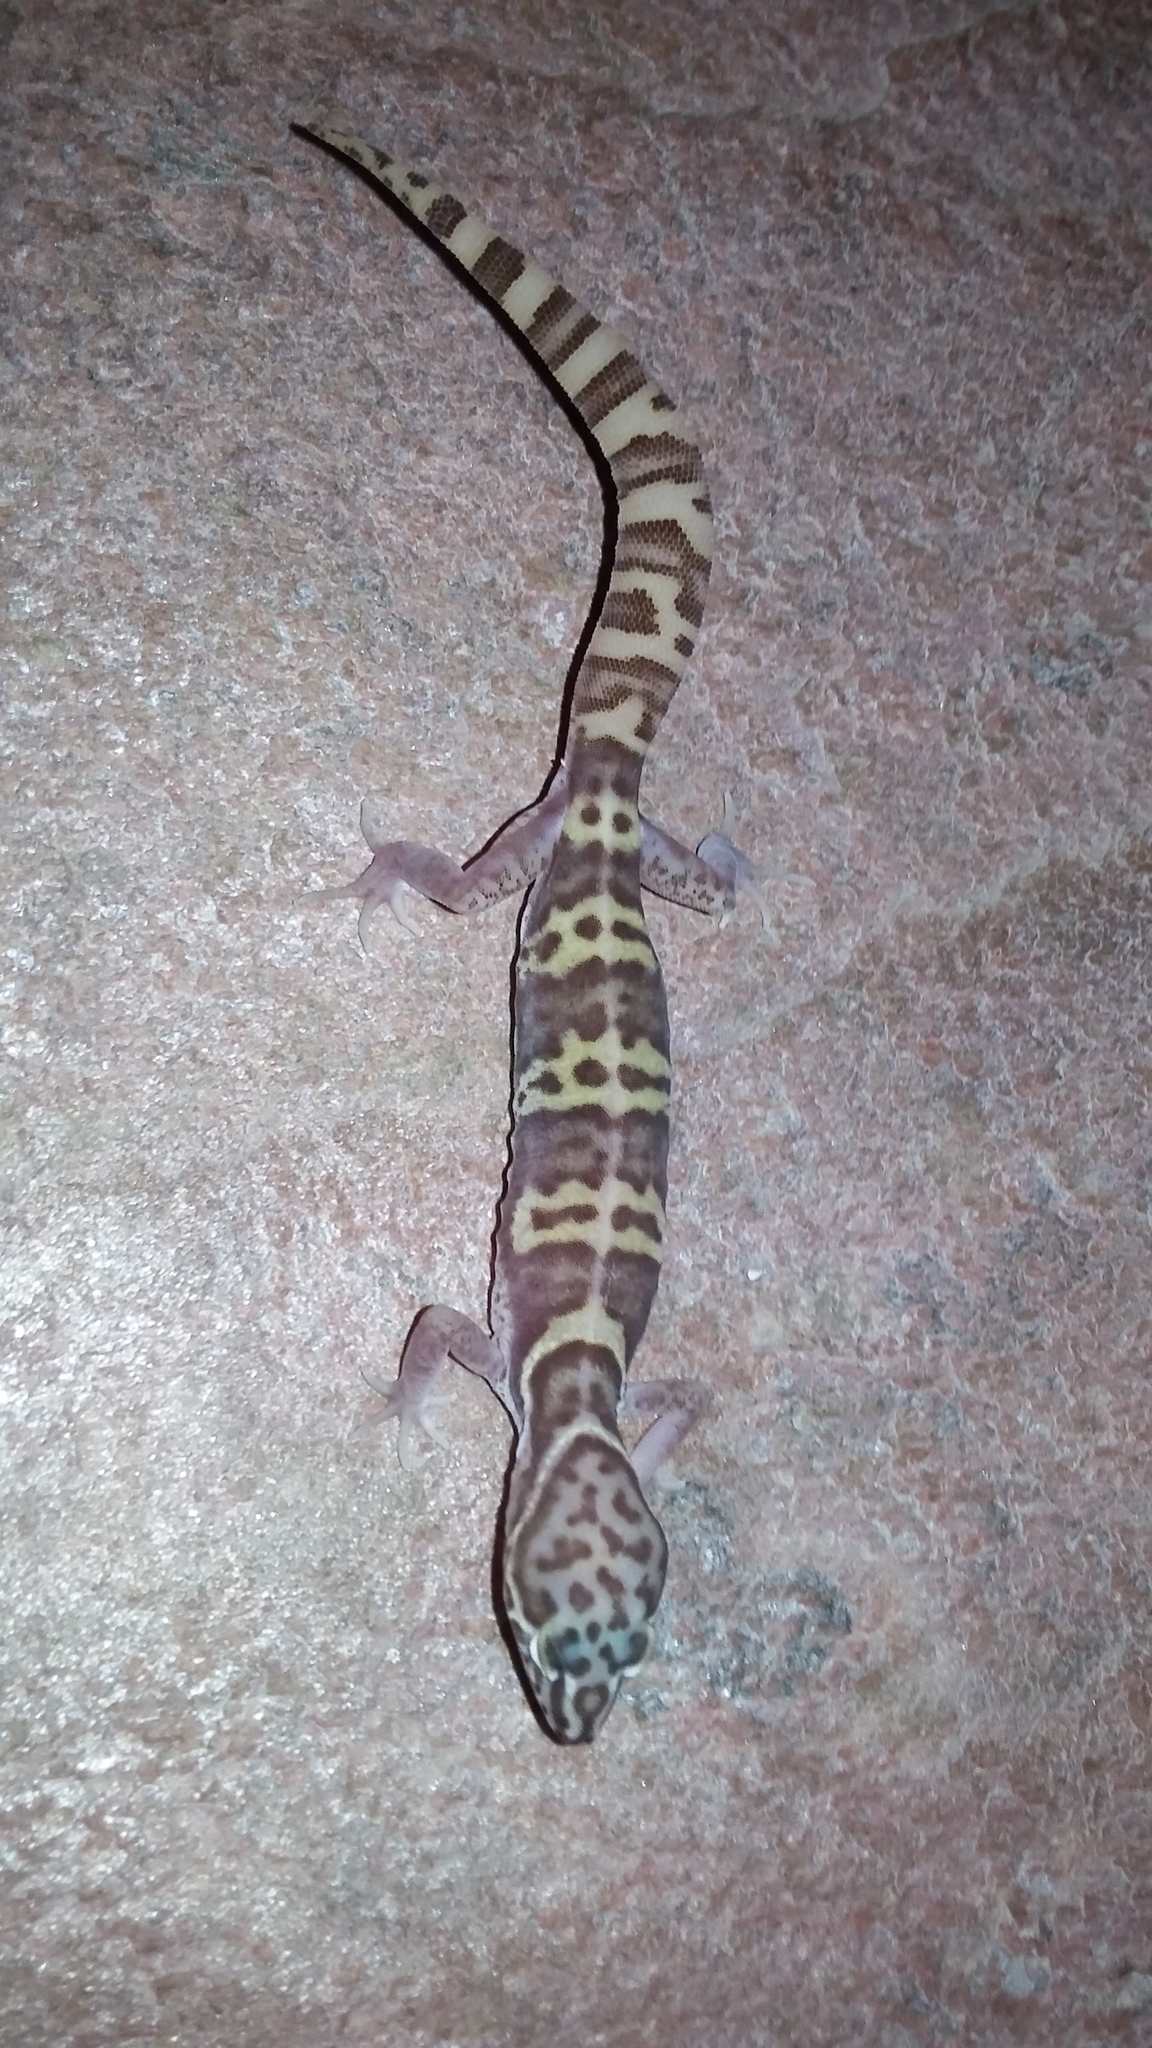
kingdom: Animalia
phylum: Chordata
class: Squamata
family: Eublepharidae
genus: Coleonyx
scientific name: Coleonyx variegatus
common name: Western banded gecko
